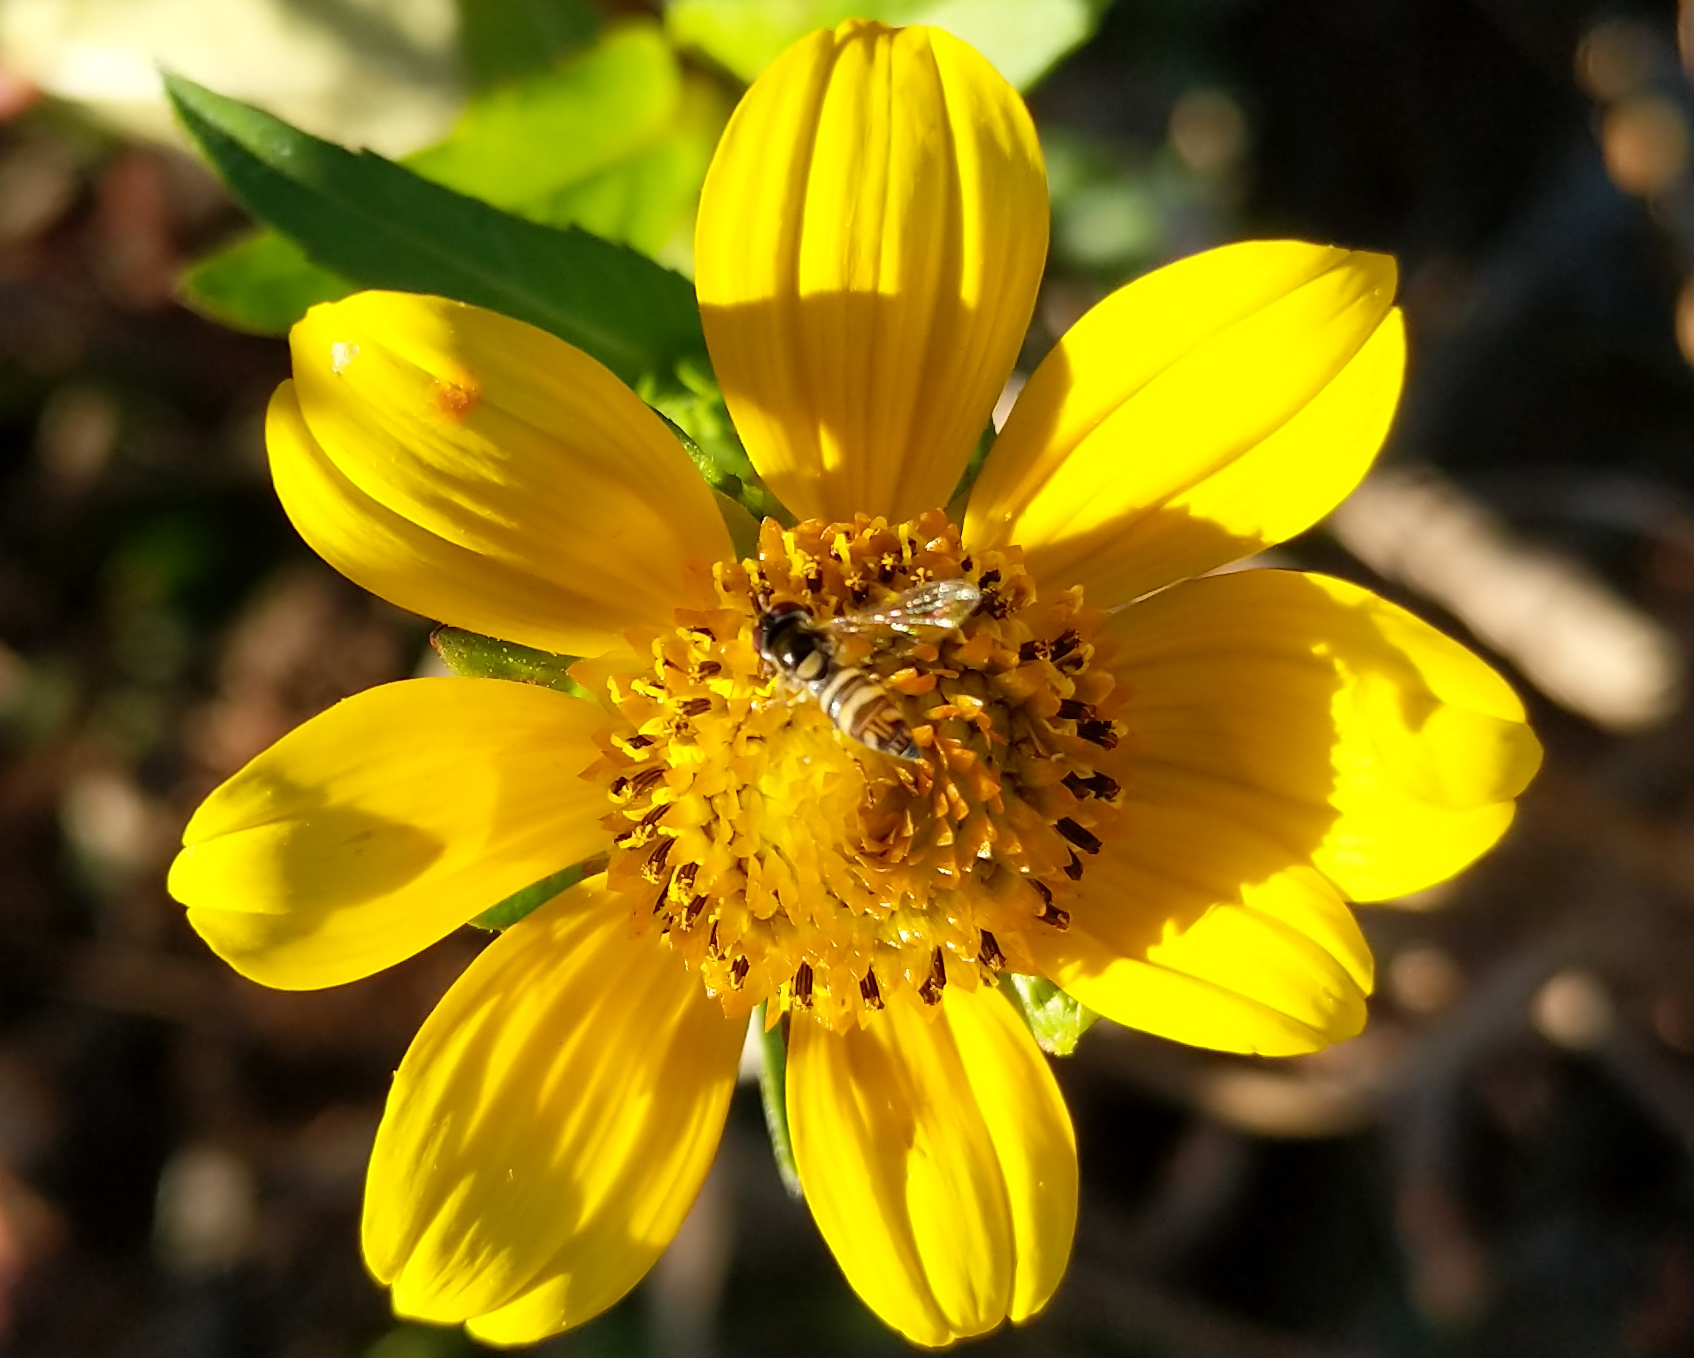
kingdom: Animalia
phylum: Arthropoda
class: Insecta
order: Diptera
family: Syrphidae
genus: Allograpta
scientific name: Allograpta
